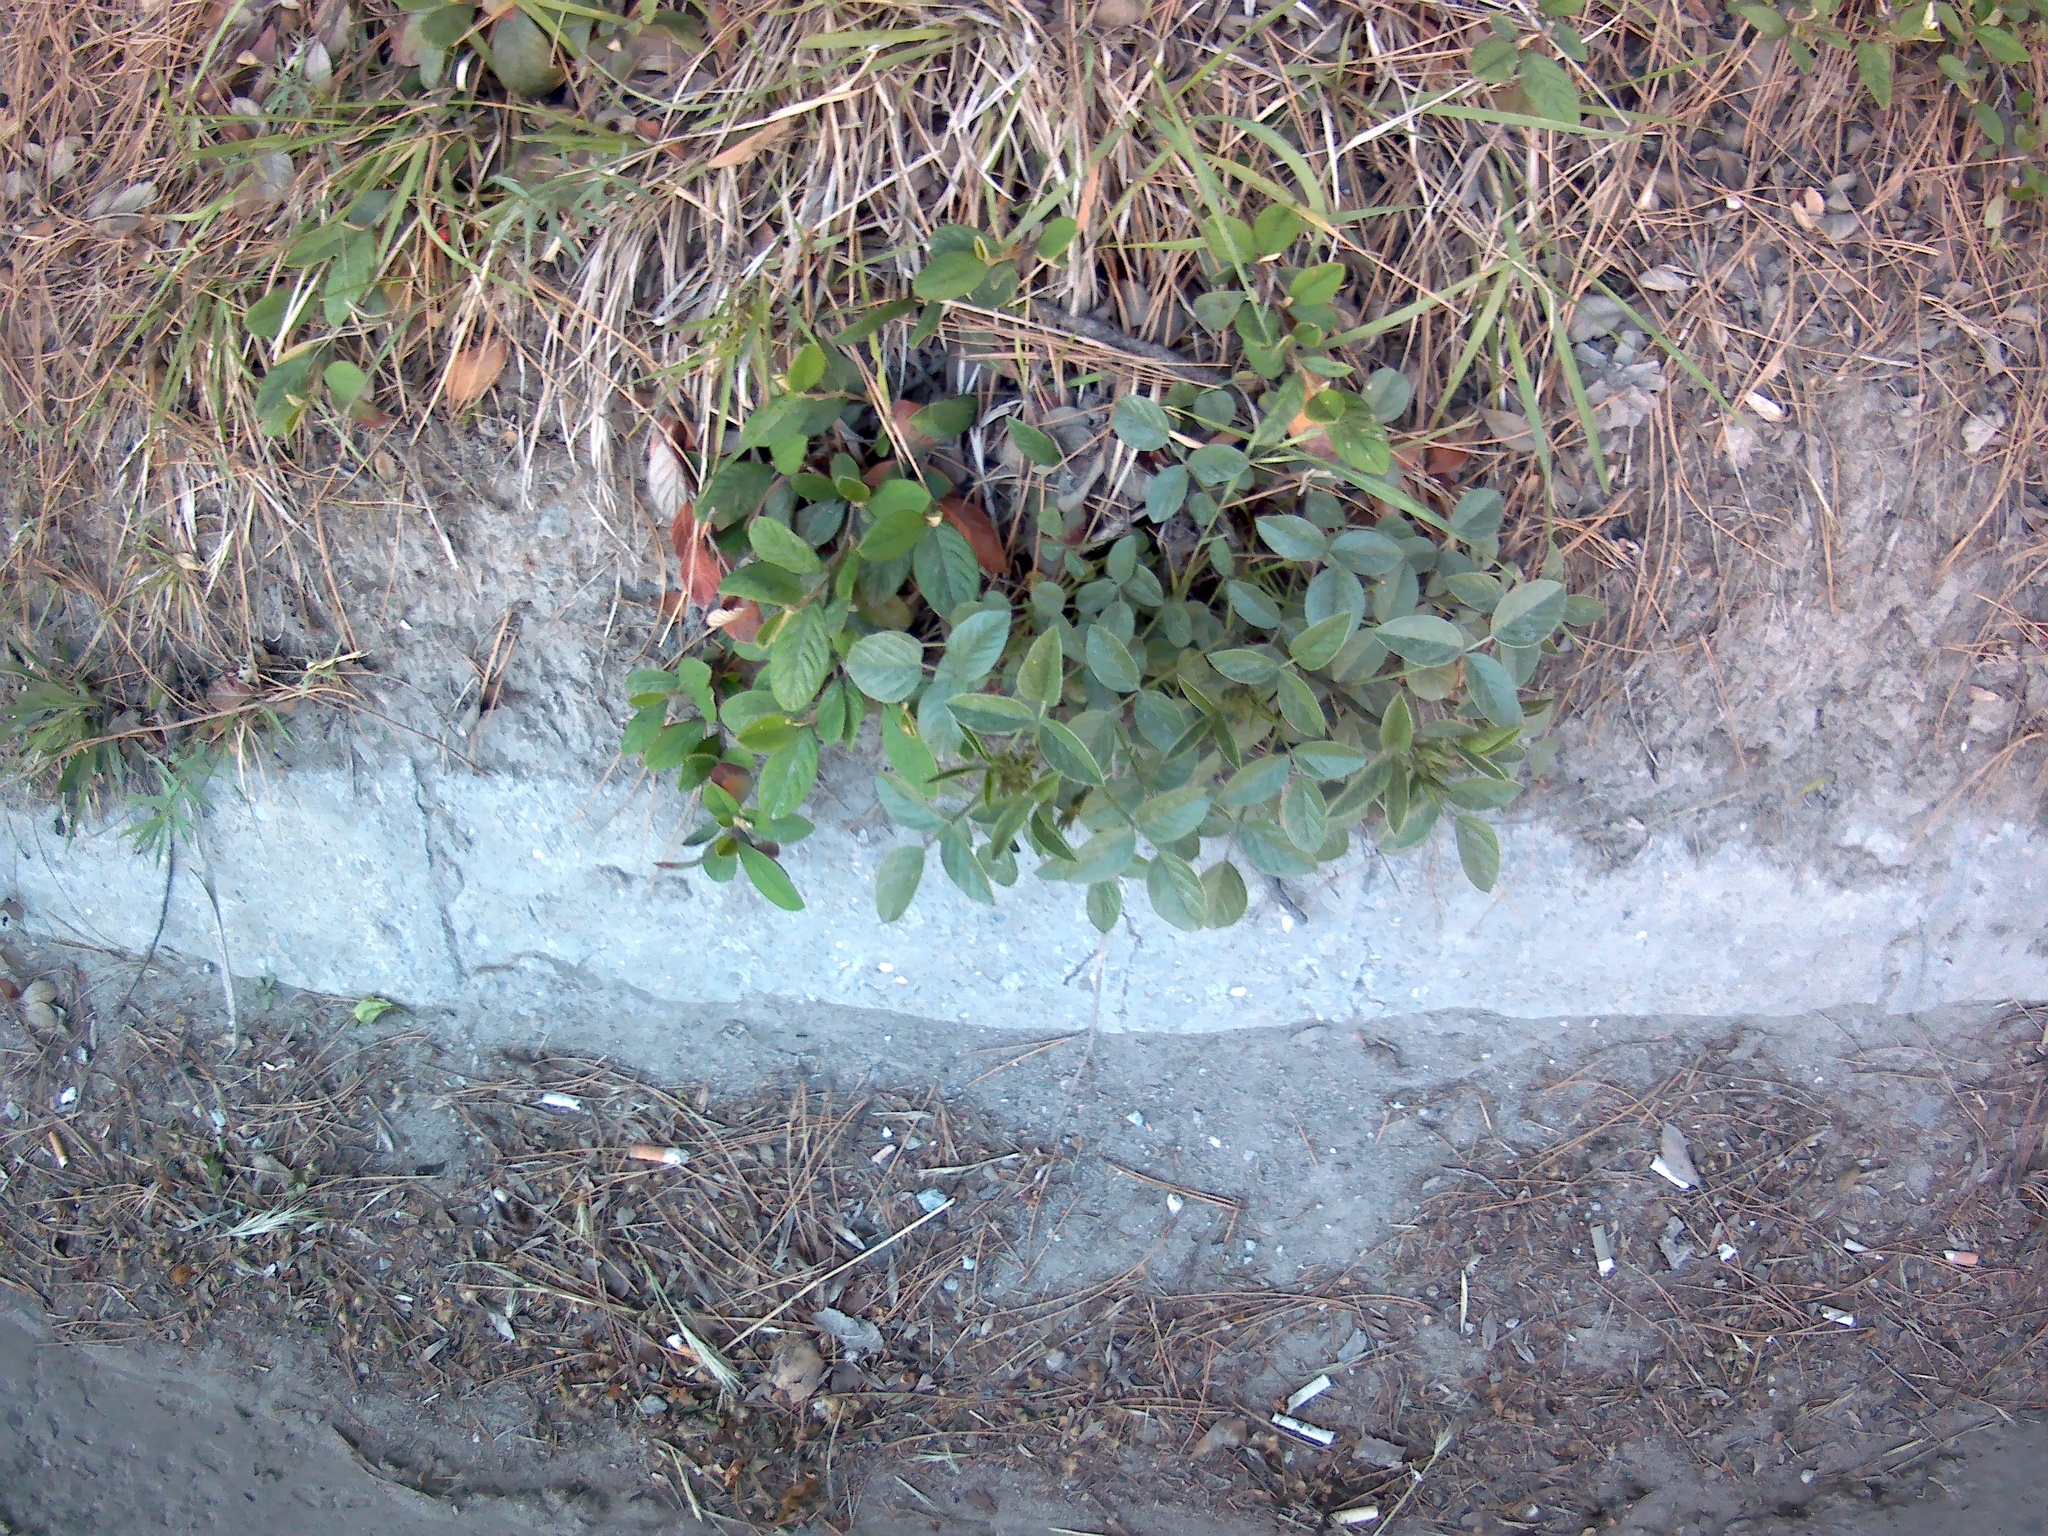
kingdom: Plantae
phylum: Tracheophyta
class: Magnoliopsida
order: Fabales
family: Fabaceae
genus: Bituminaria
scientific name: Bituminaria bituminosa
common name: Arabian pea
